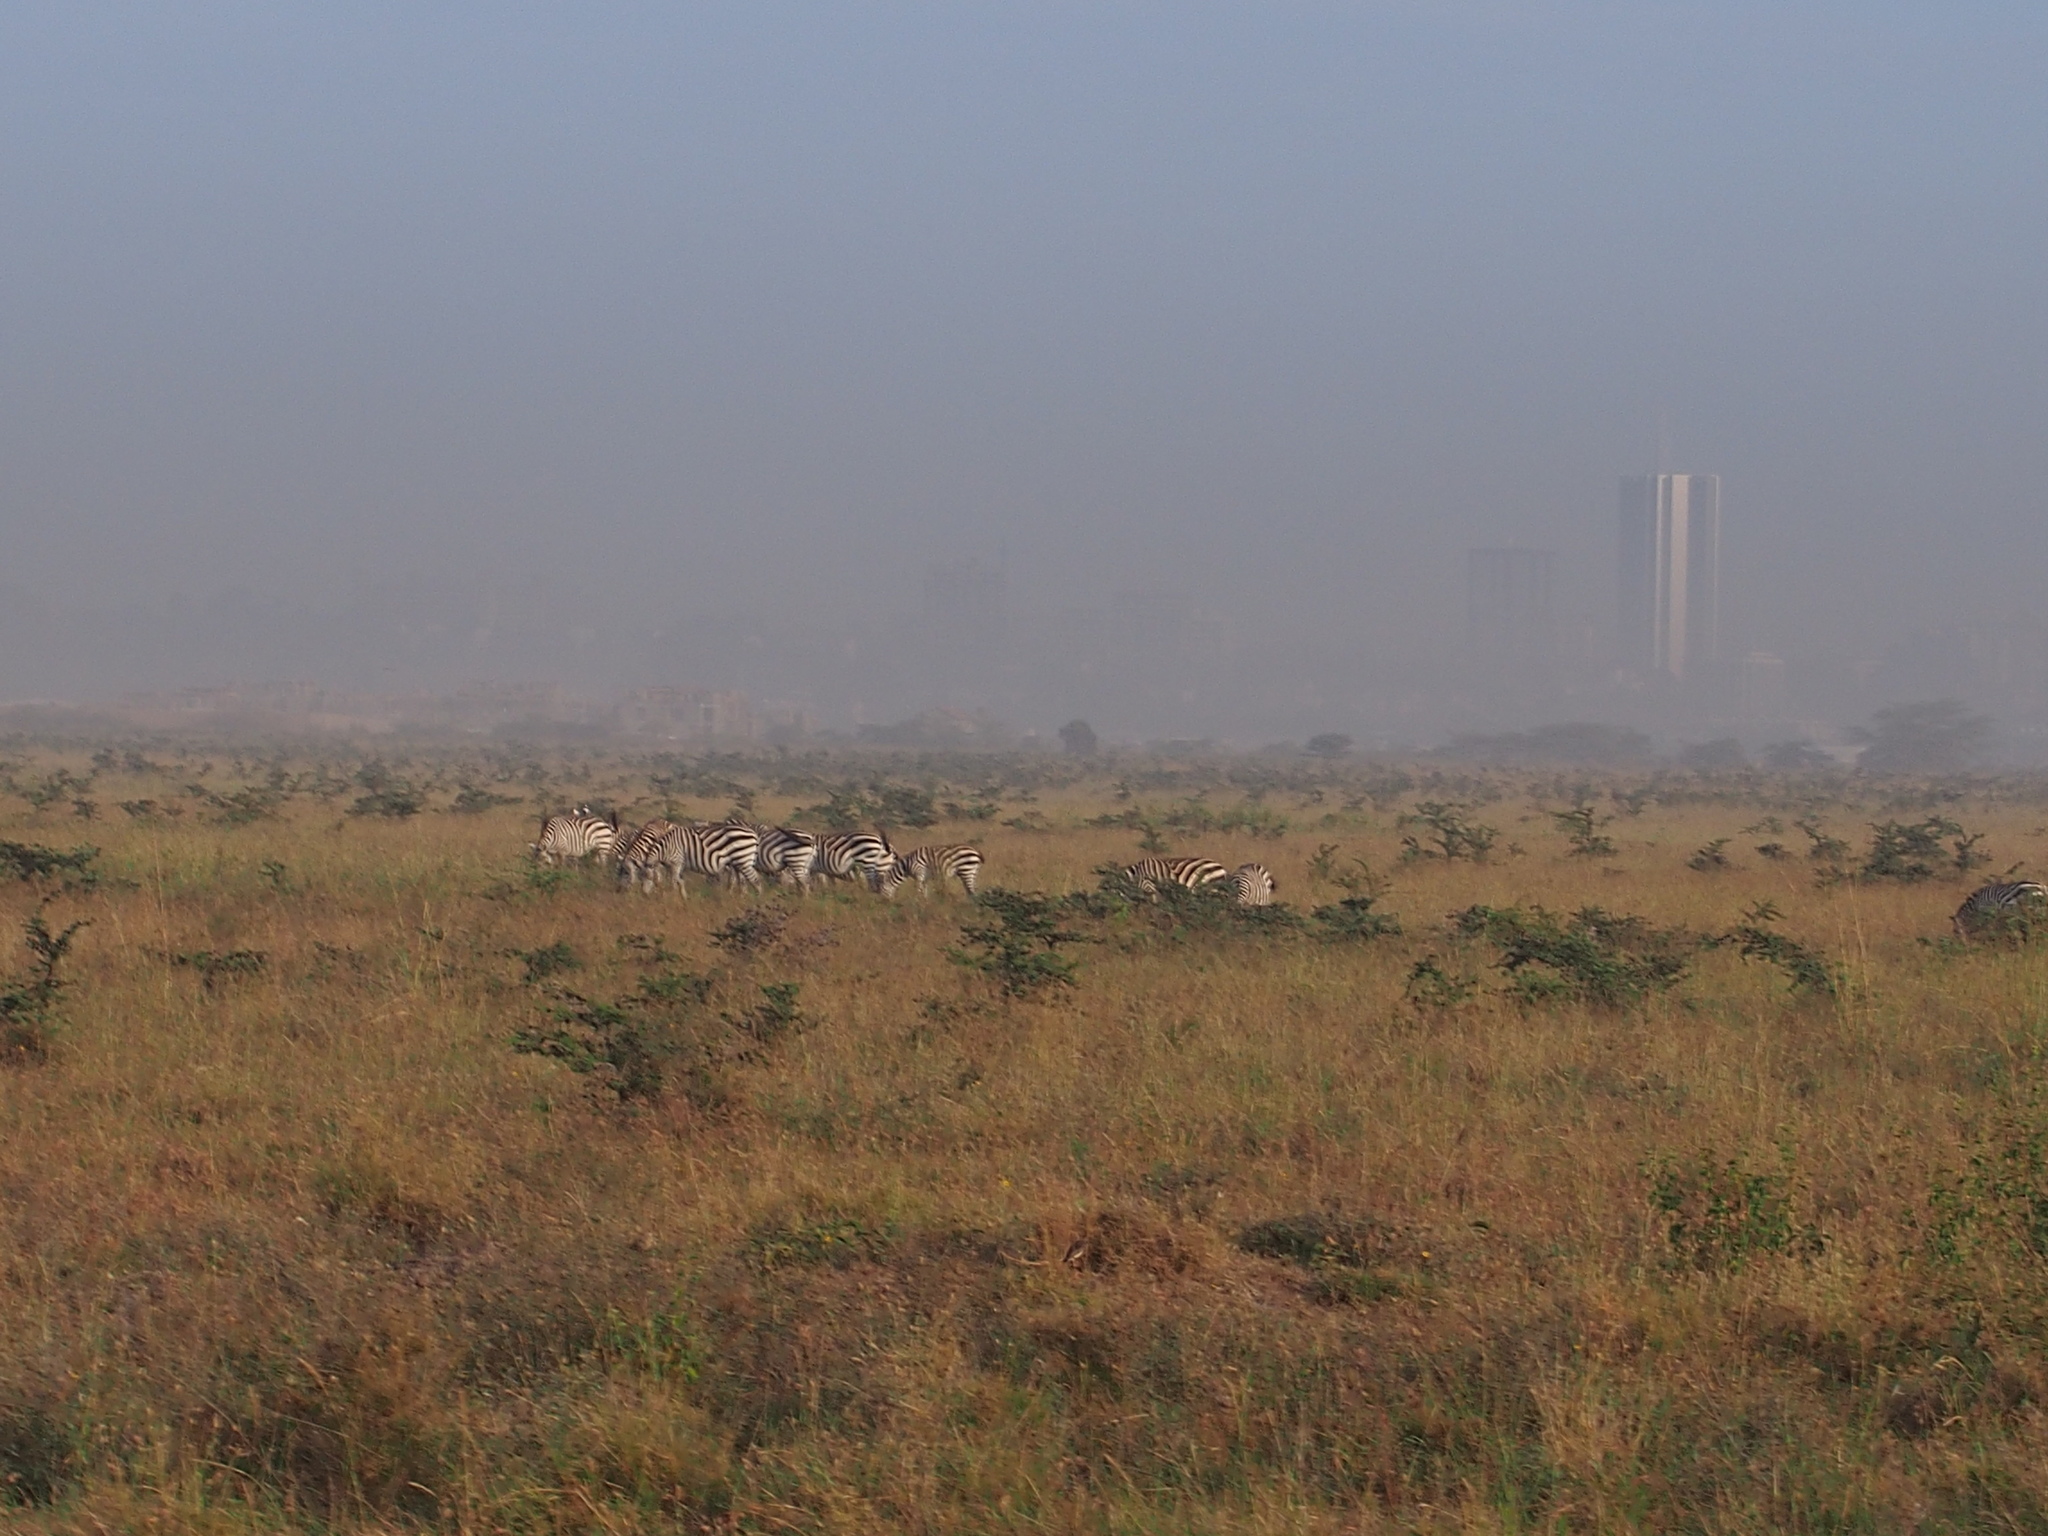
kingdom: Animalia
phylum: Chordata
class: Mammalia
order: Perissodactyla
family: Equidae
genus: Equus
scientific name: Equus quagga
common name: Plains zebra
